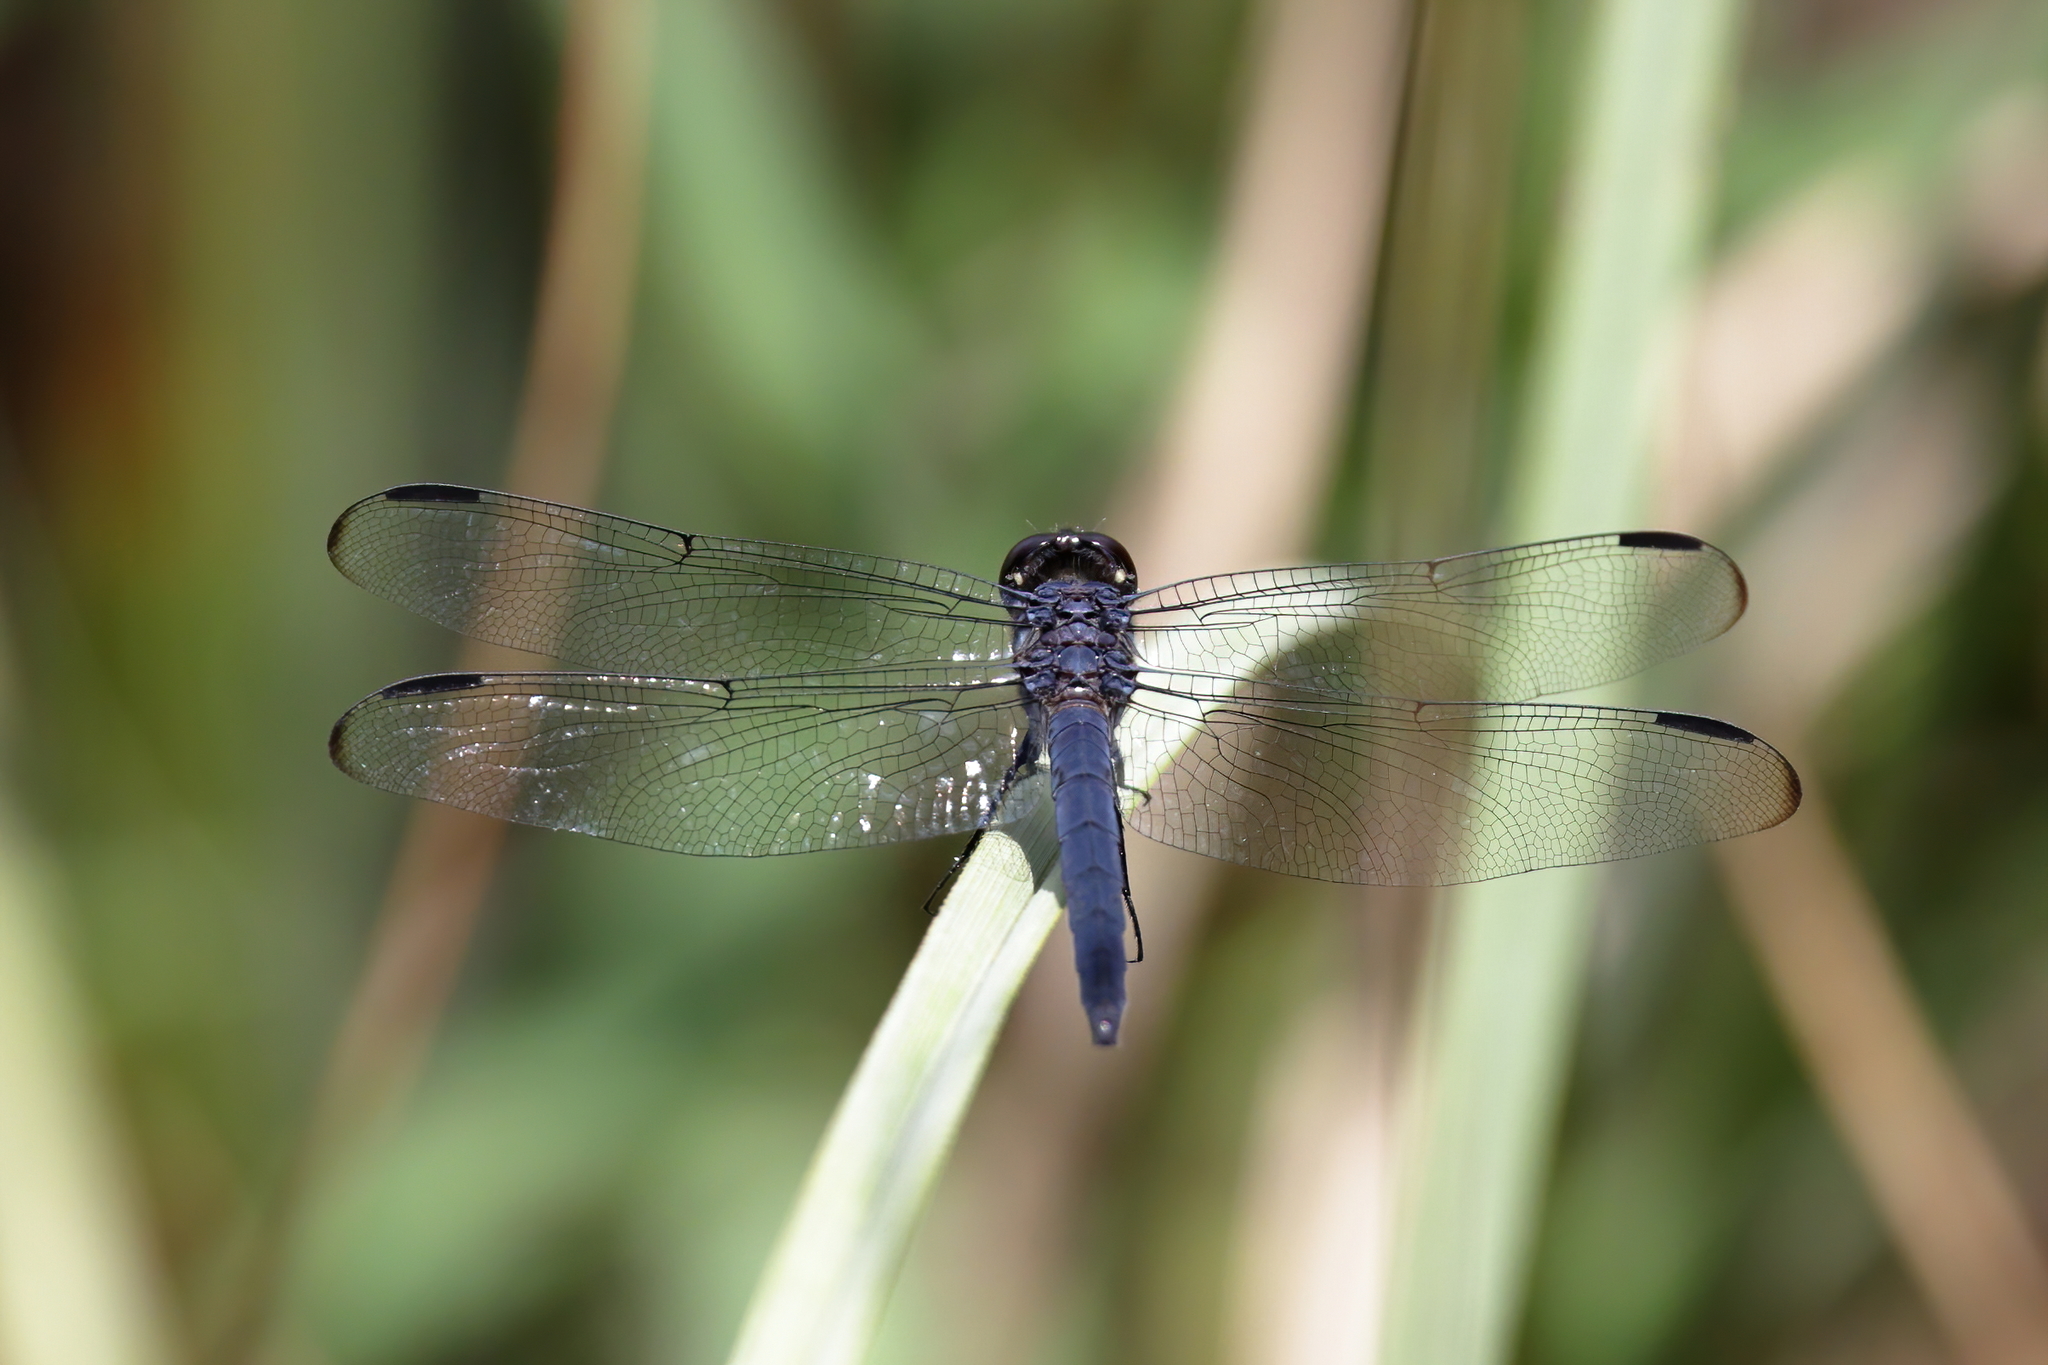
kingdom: Animalia
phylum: Arthropoda
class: Insecta
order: Odonata
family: Libellulidae
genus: Libellula
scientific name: Libellula incesta
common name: Slaty skimmer
